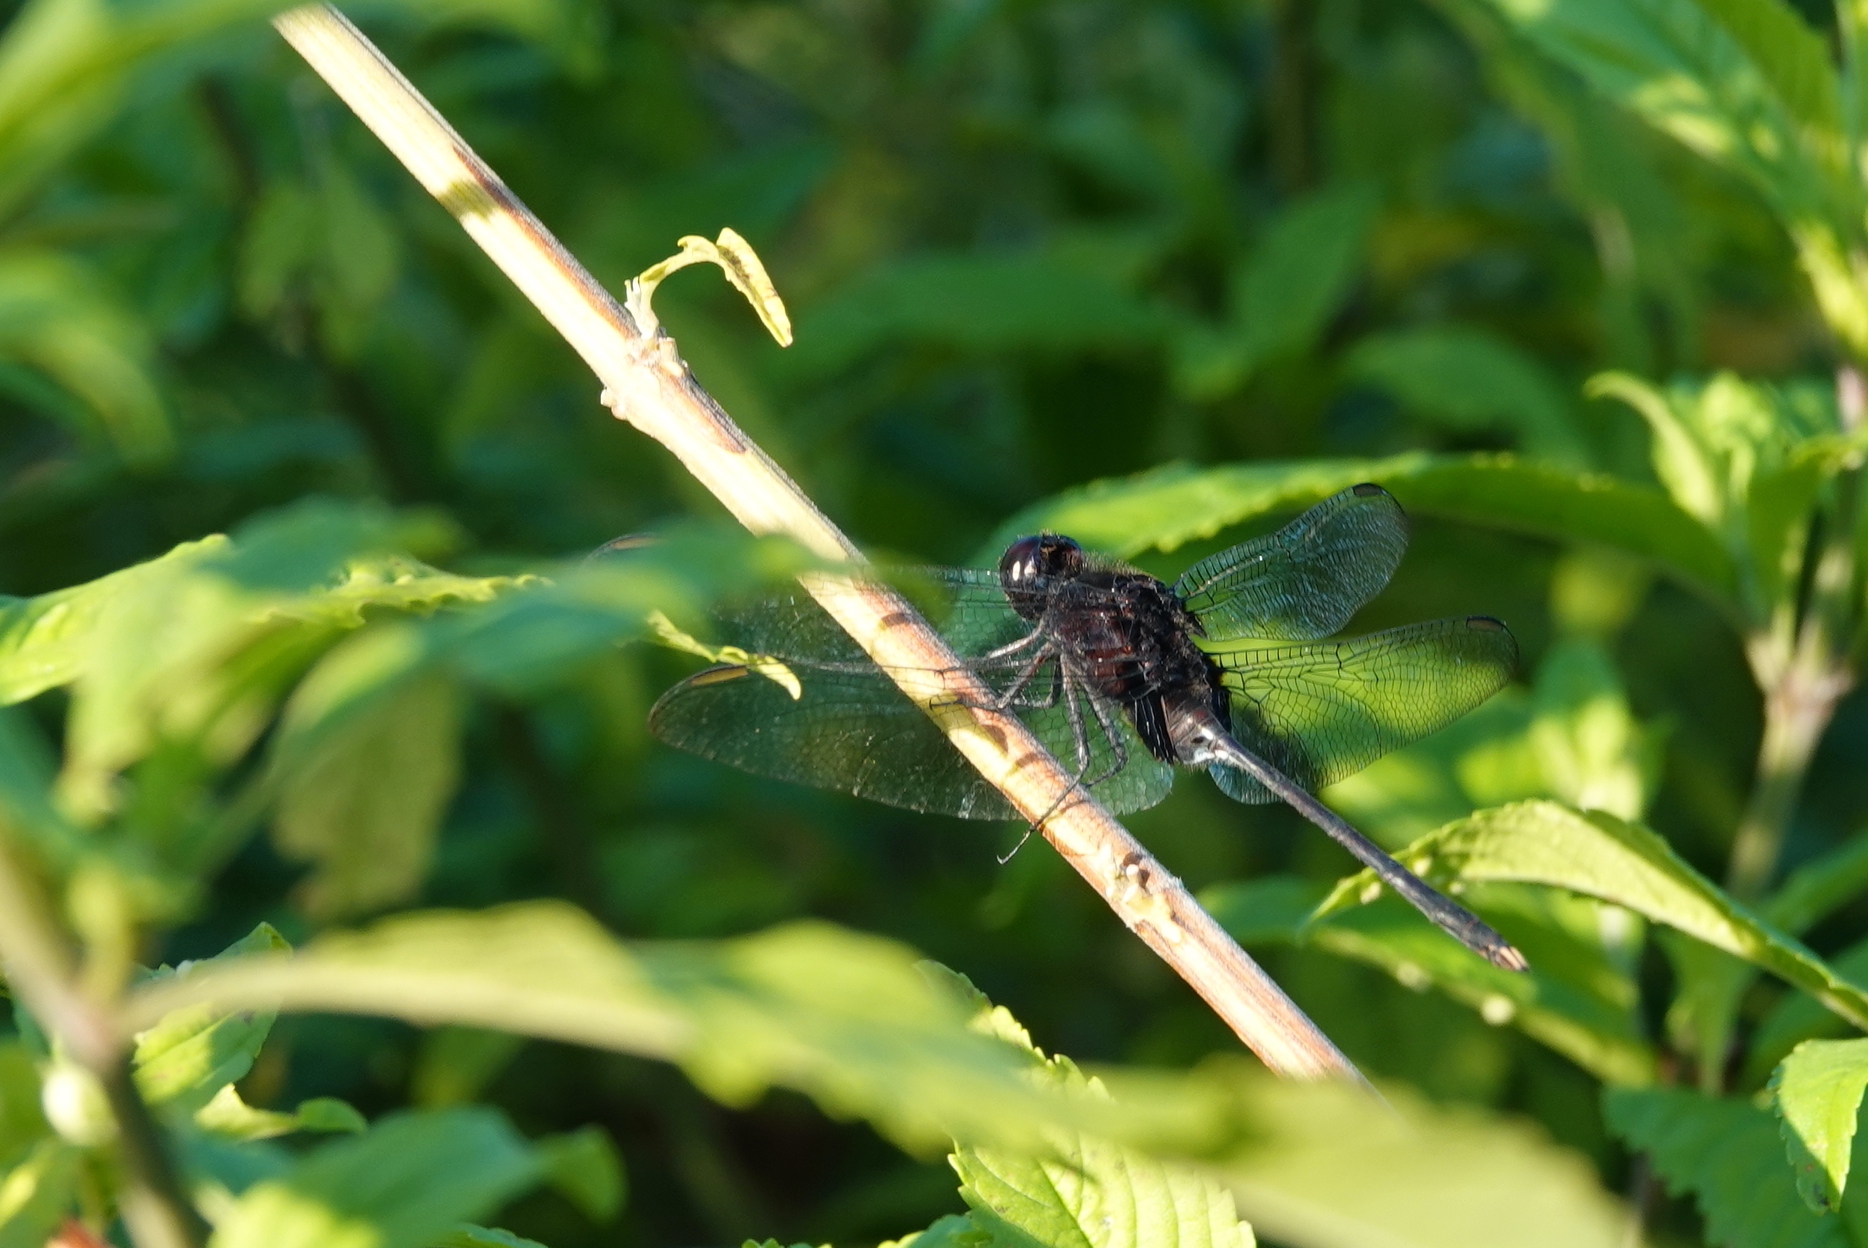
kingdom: Animalia
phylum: Arthropoda
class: Insecta
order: Odonata
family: Libellulidae
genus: Erythemis
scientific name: Erythemis plebeja
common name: Pin-tailed pondhawk
